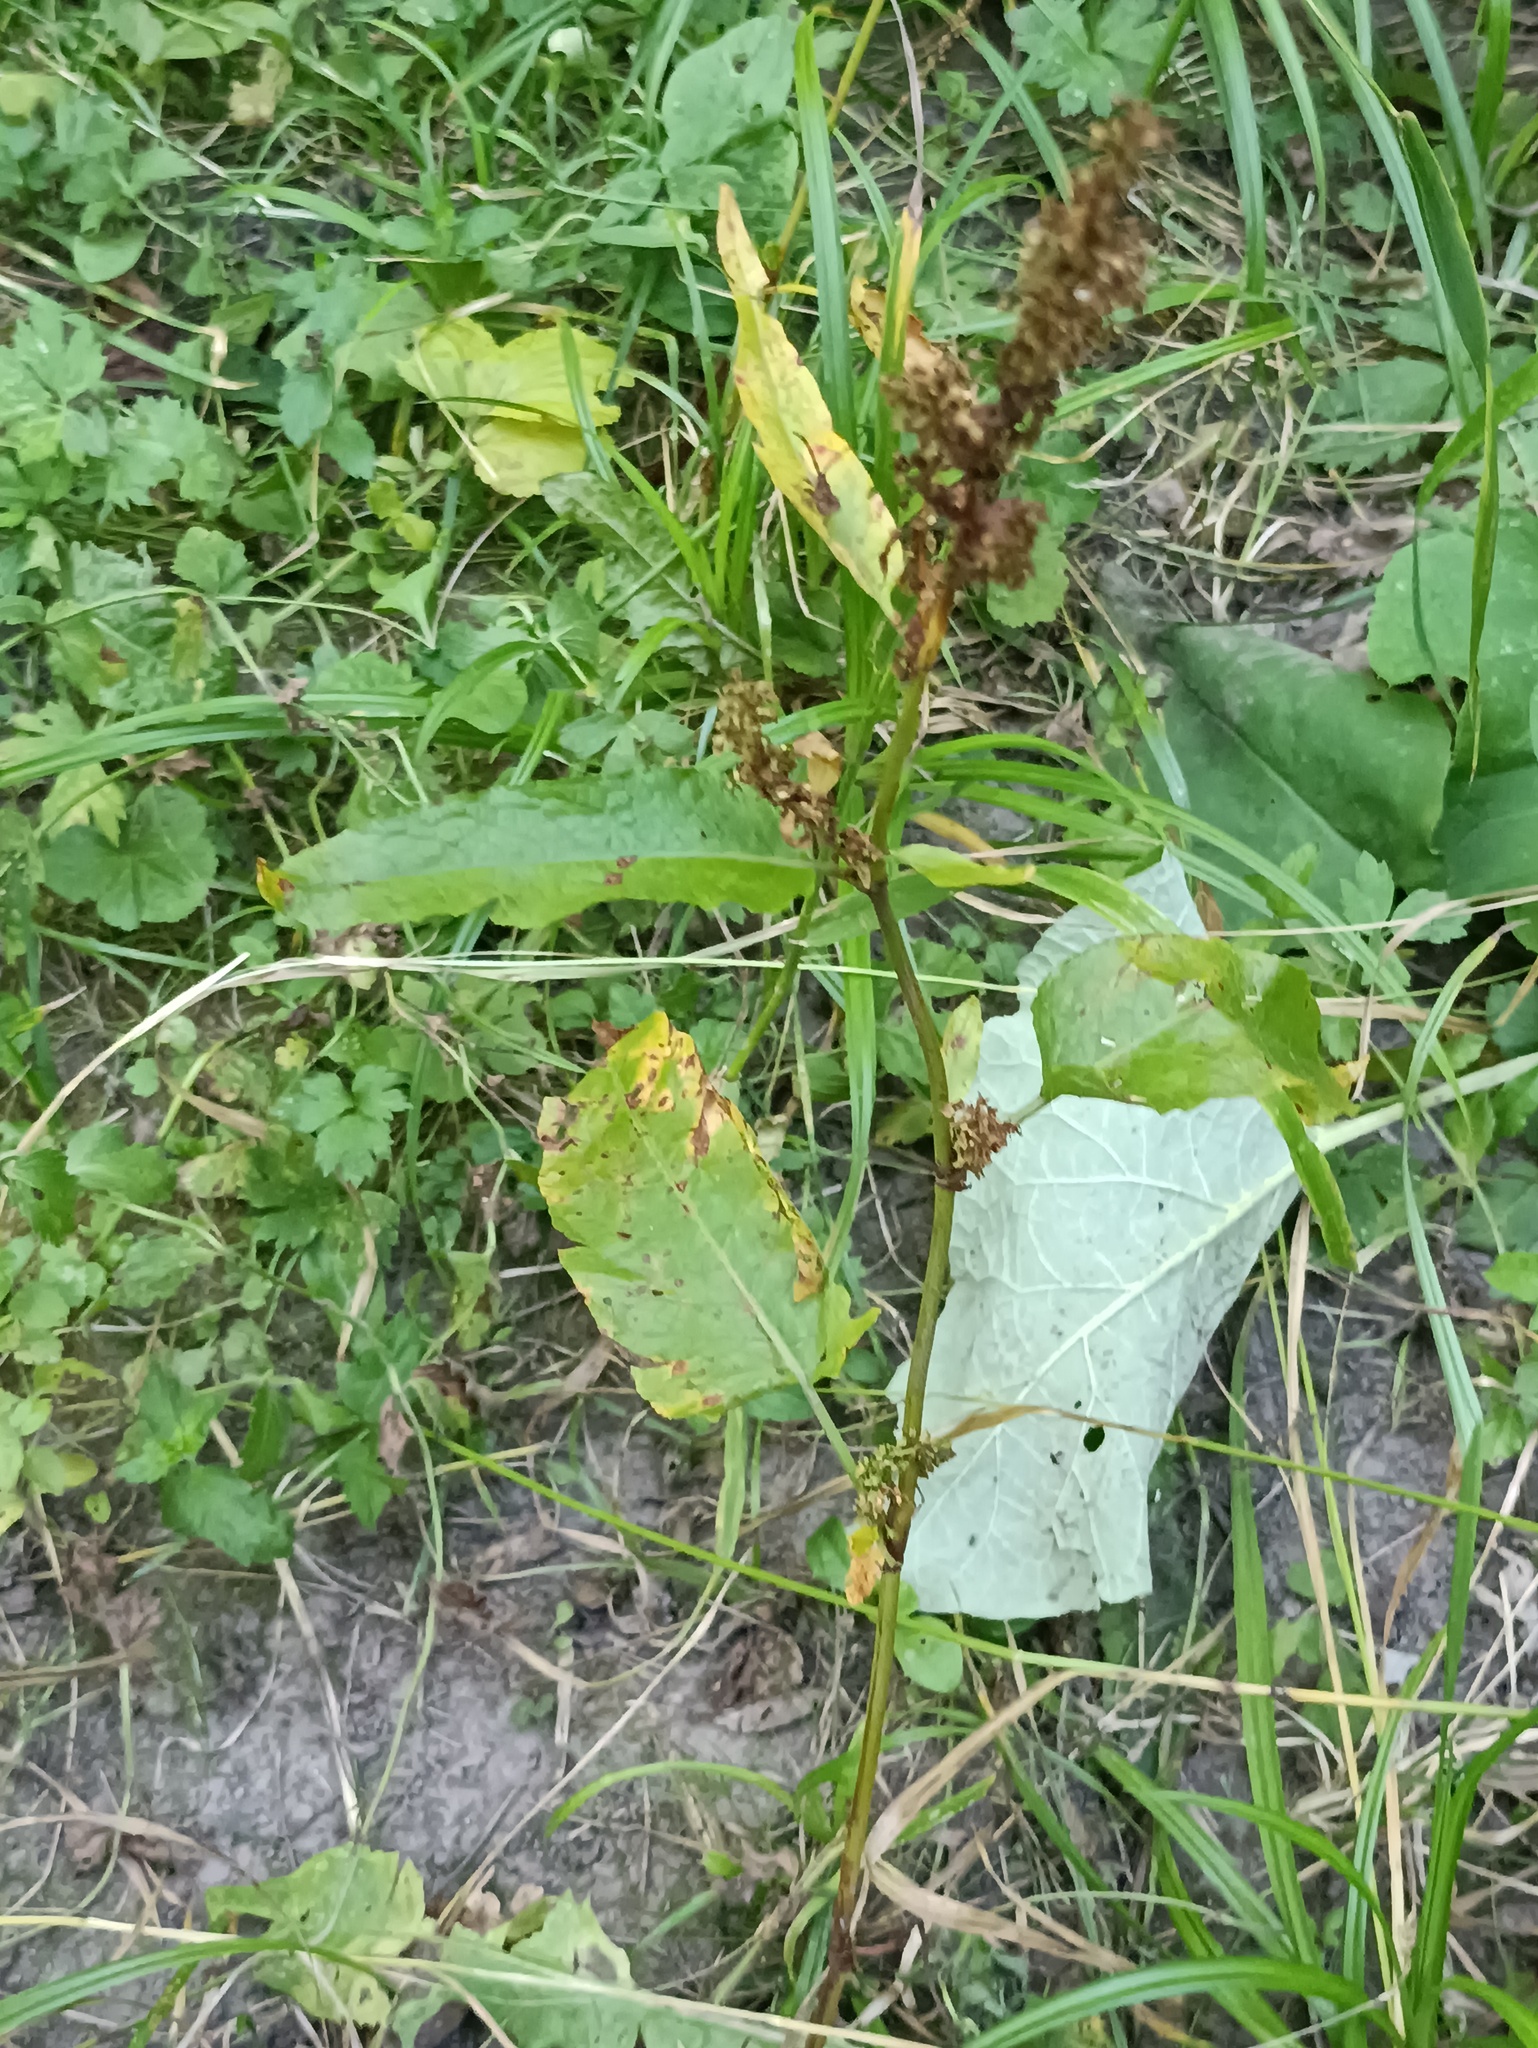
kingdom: Plantae
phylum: Tracheophyta
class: Magnoliopsida
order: Caryophyllales
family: Polygonaceae
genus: Rumex
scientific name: Rumex obtusifolius
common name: Bitter dock
